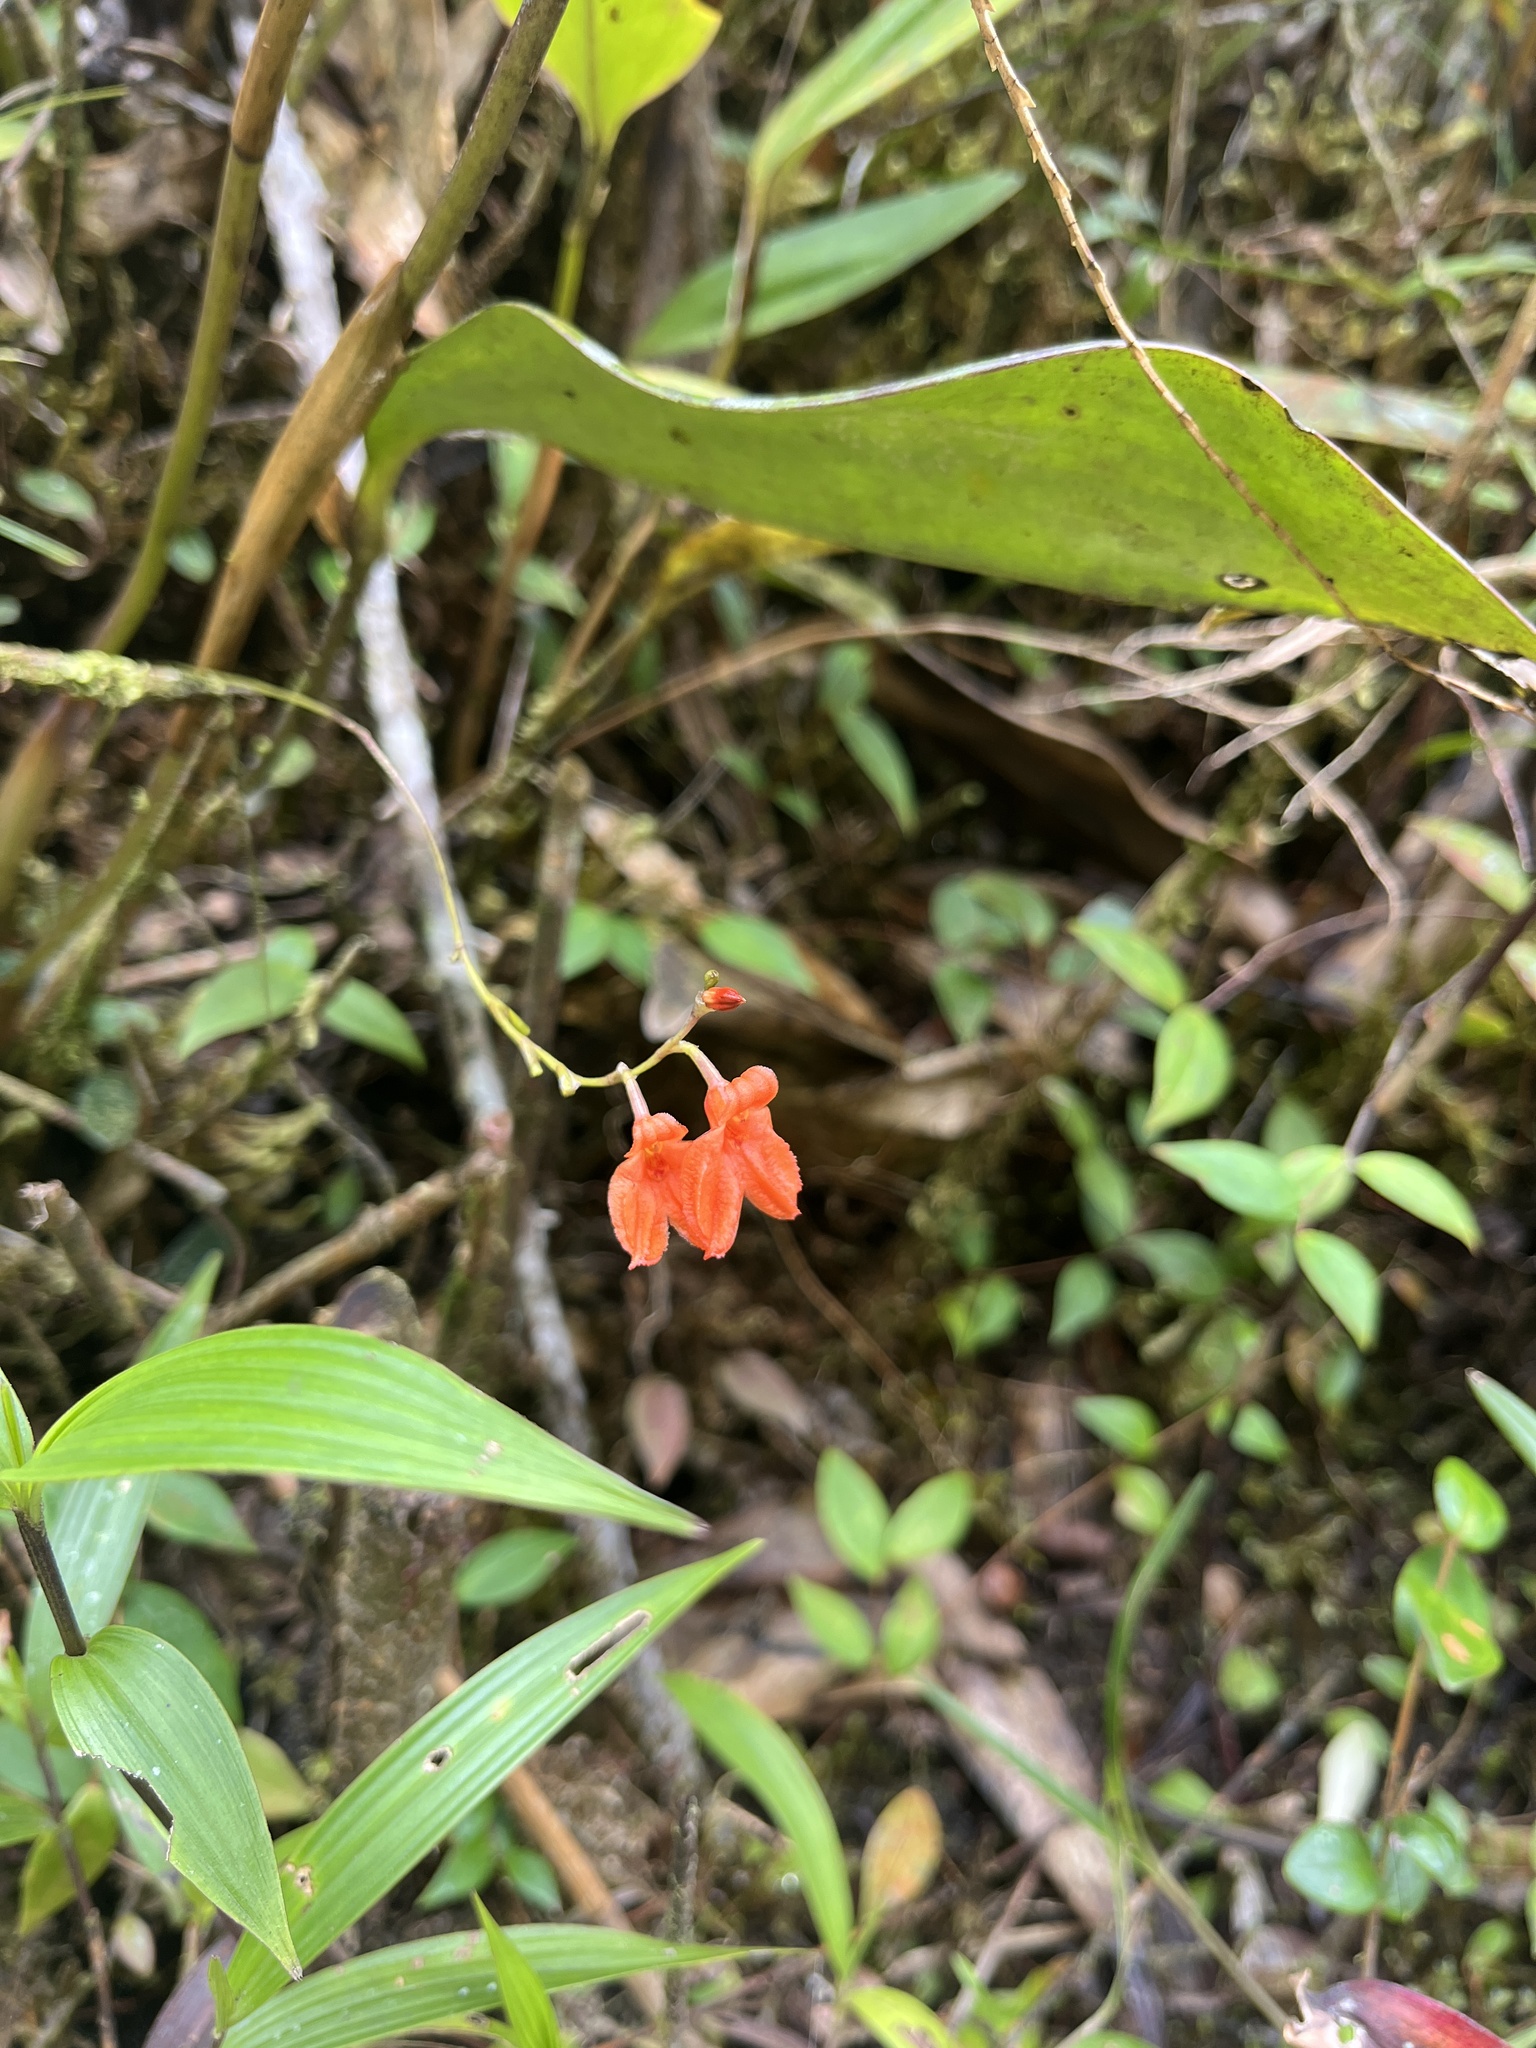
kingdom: Plantae
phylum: Tracheophyta
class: Liliopsida
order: Asparagales
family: Orchidaceae
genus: Porroglossum
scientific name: Porroglossum eduardi
